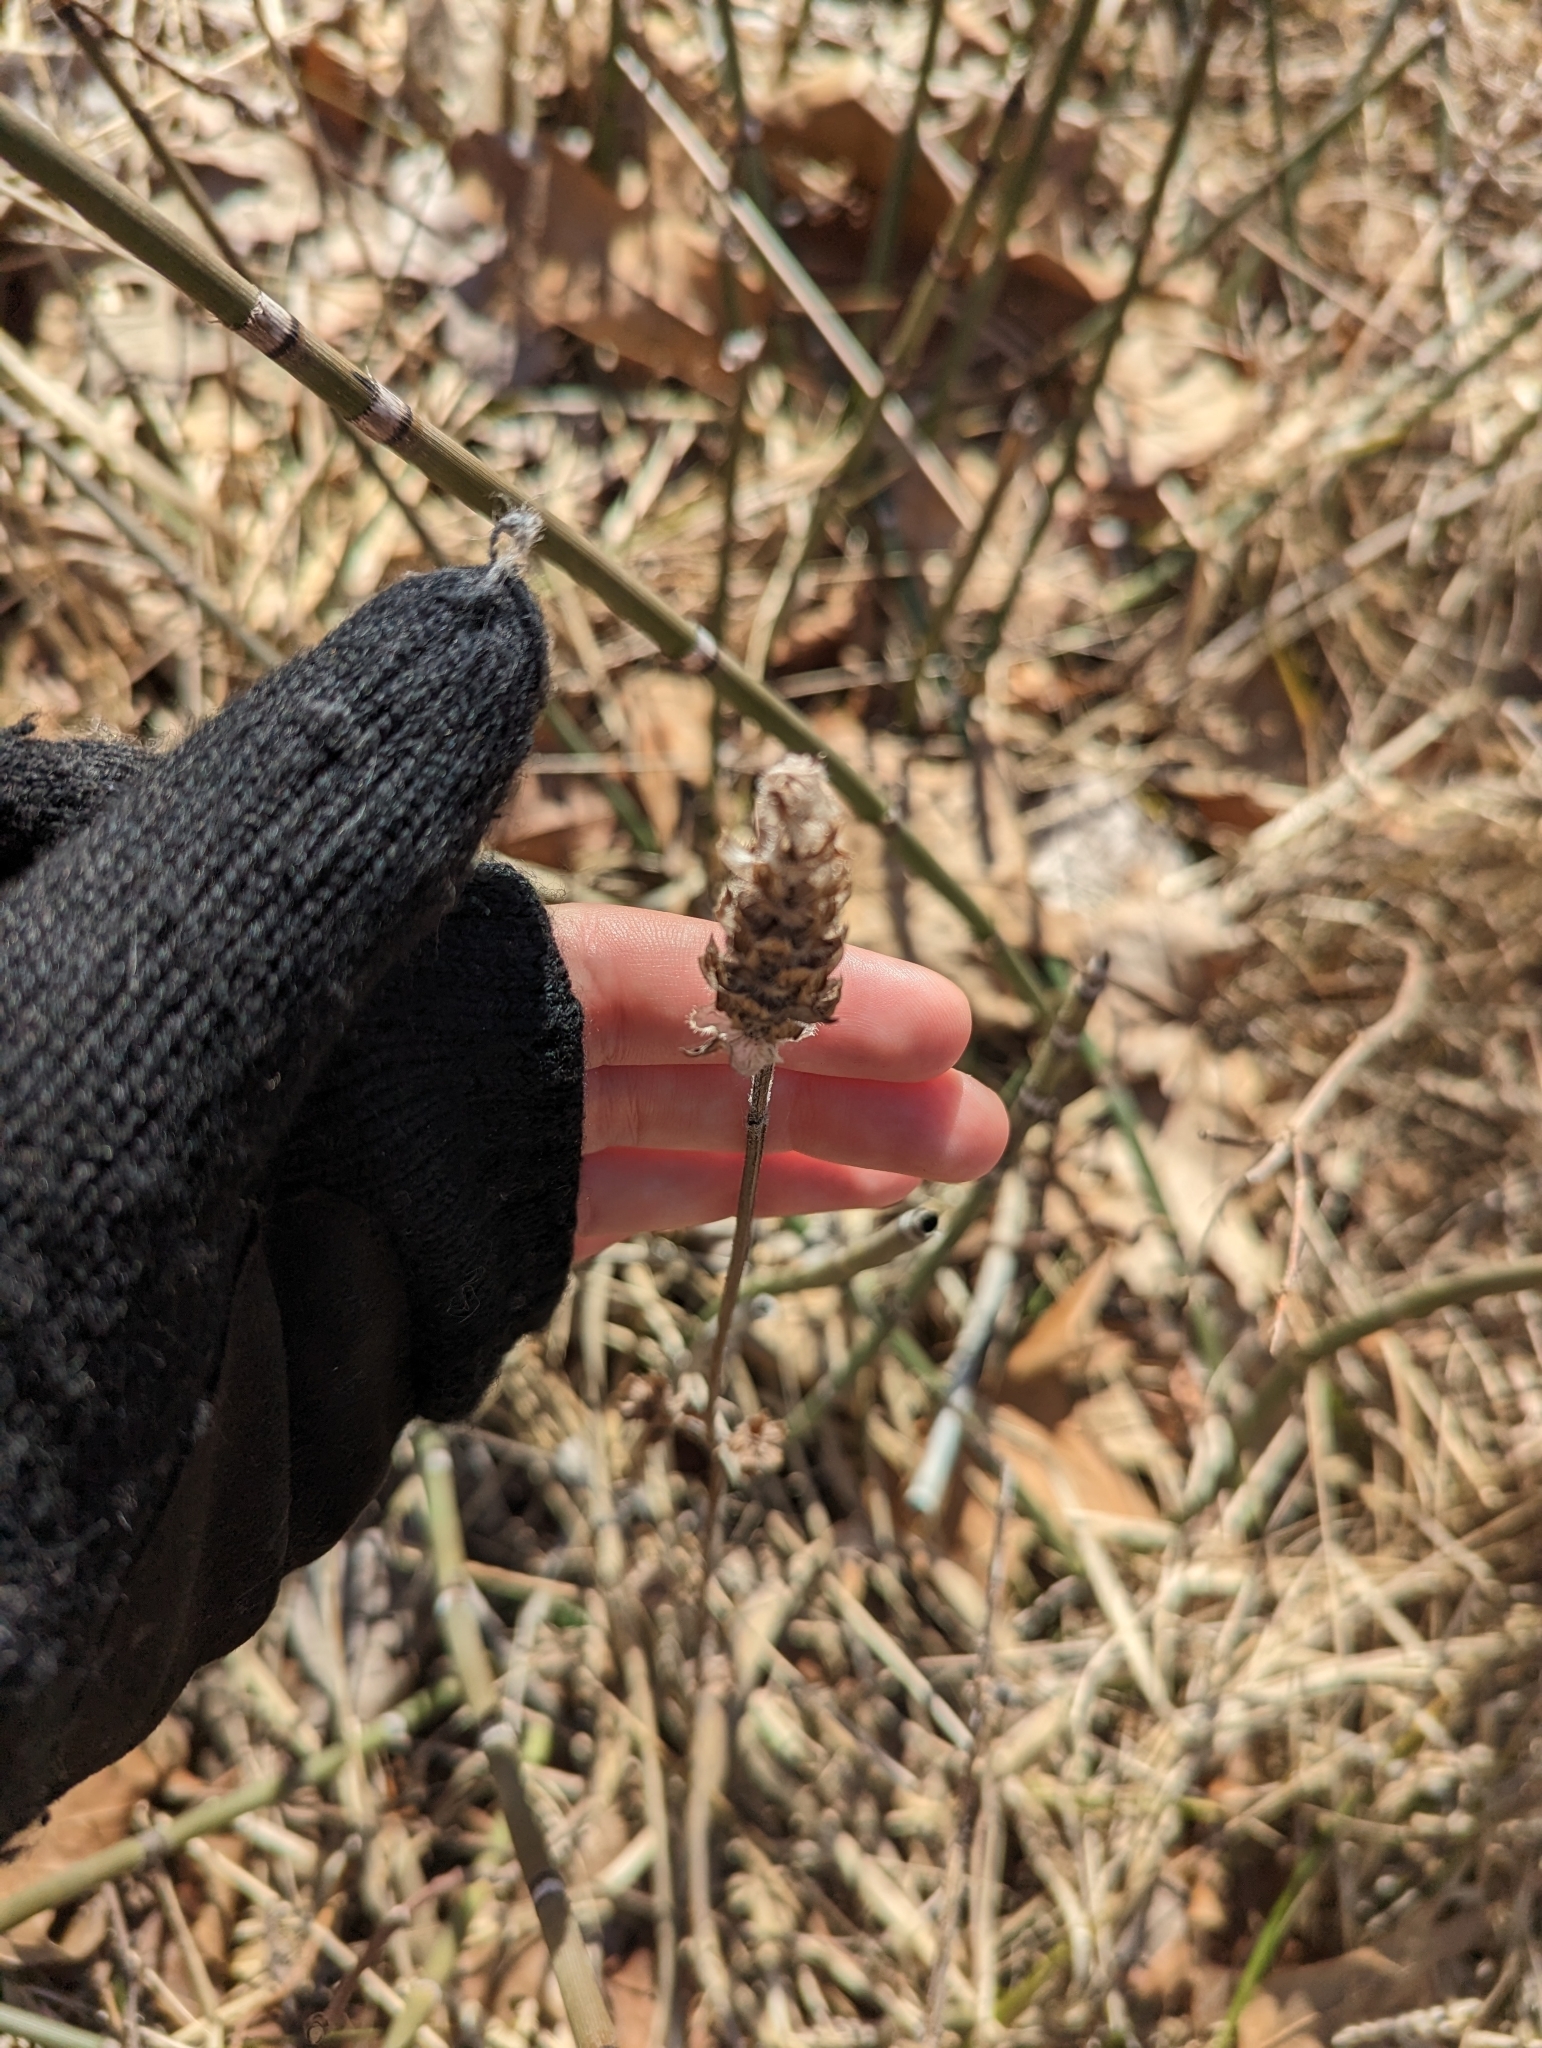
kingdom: Plantae
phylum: Tracheophyta
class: Magnoliopsida
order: Lamiales
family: Lamiaceae
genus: Prunella
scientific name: Prunella vulgaris
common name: Heal-all
